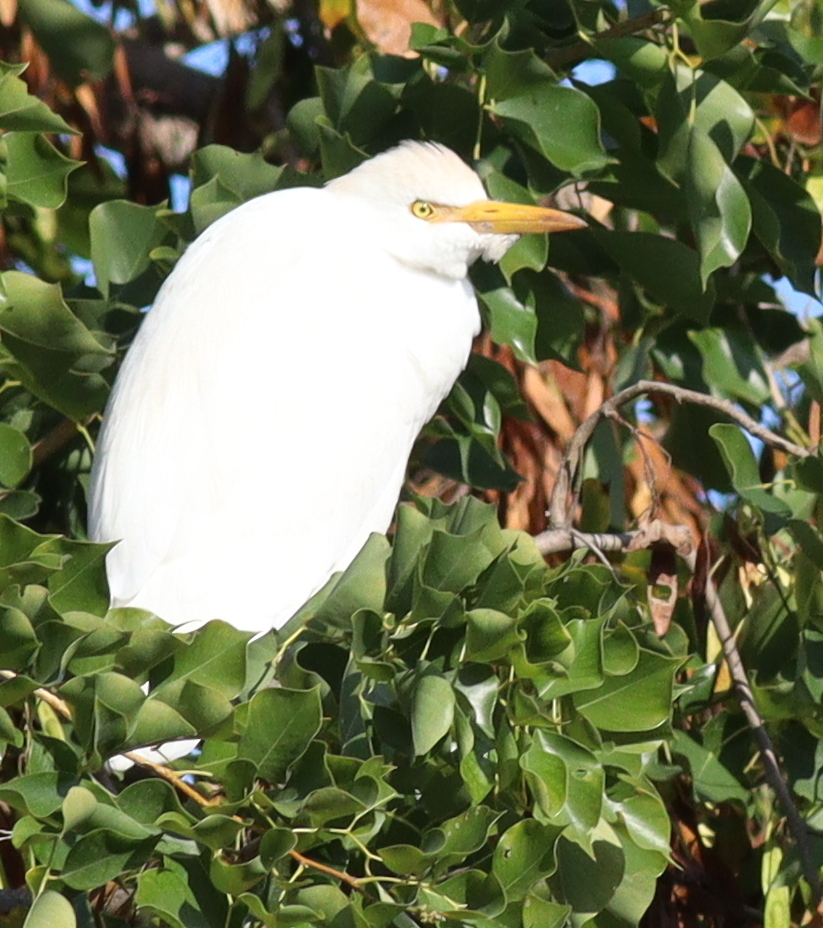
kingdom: Animalia
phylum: Chordata
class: Aves
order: Pelecaniformes
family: Ardeidae
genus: Bubulcus
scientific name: Bubulcus ibis
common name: Cattle egret
